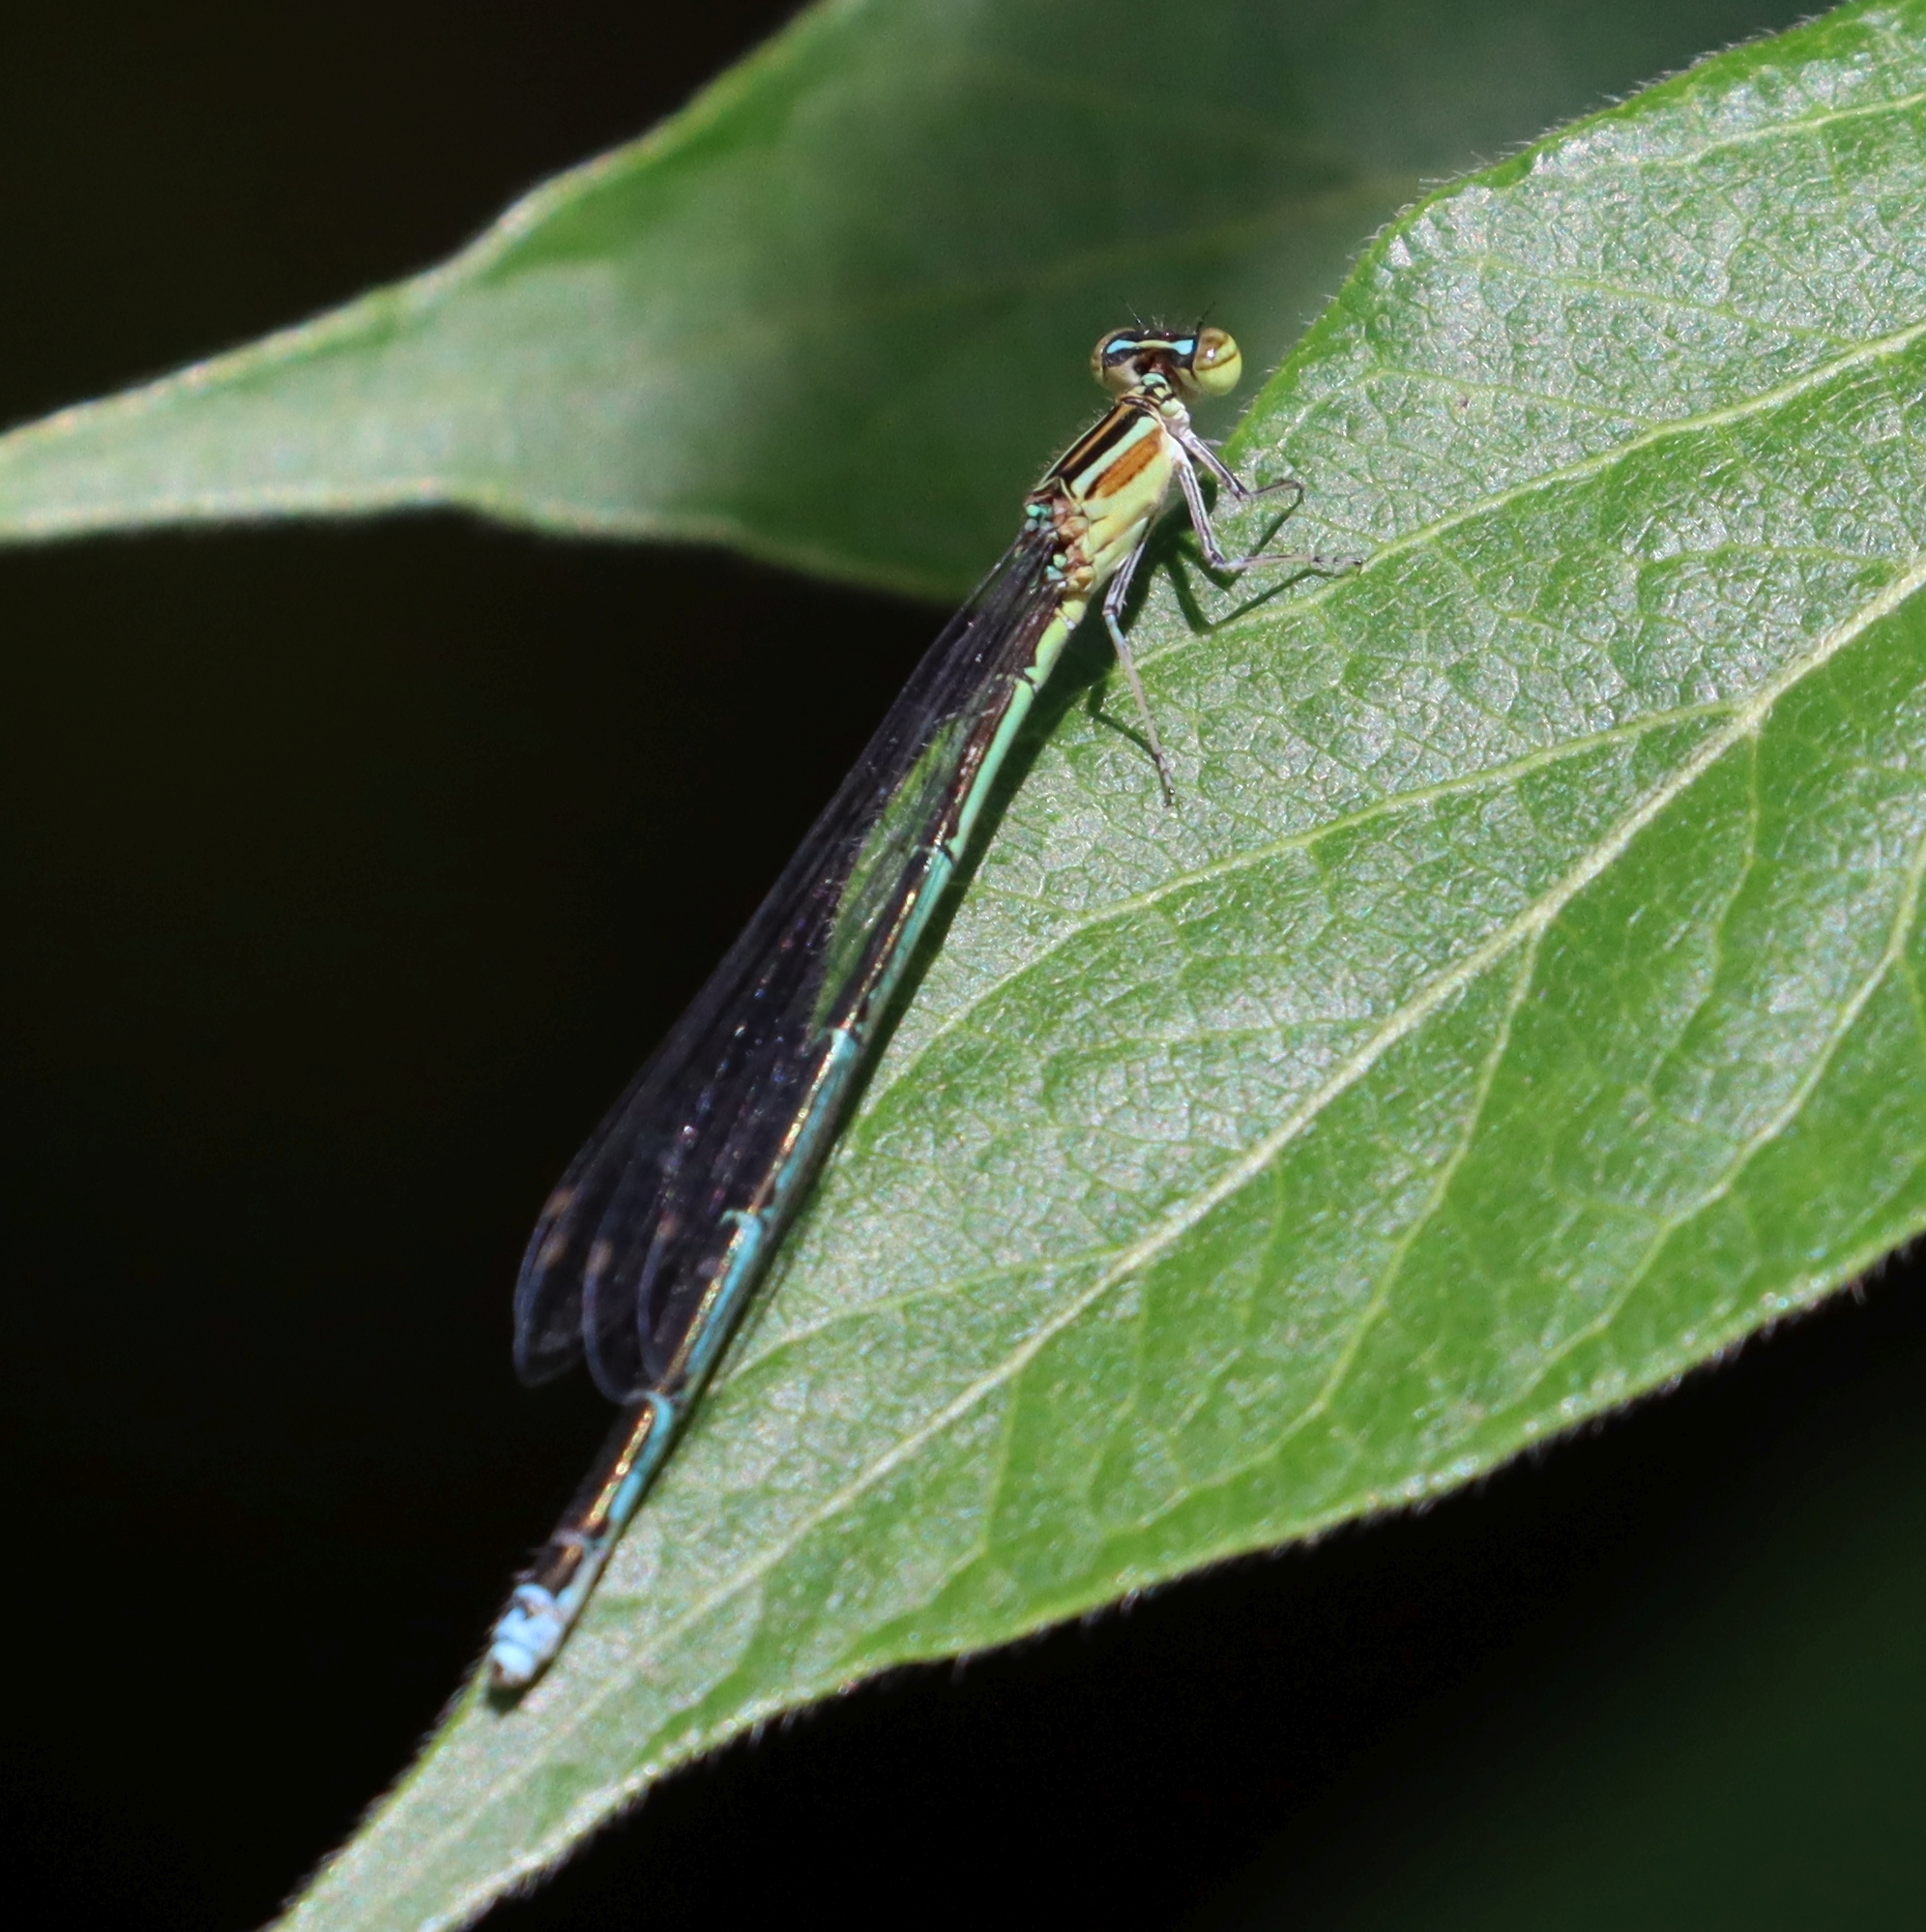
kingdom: Animalia
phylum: Arthropoda
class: Insecta
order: Odonata
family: Coenagrionidae
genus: Enallagma
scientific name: Enallagma exsulans
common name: Stream bluet
